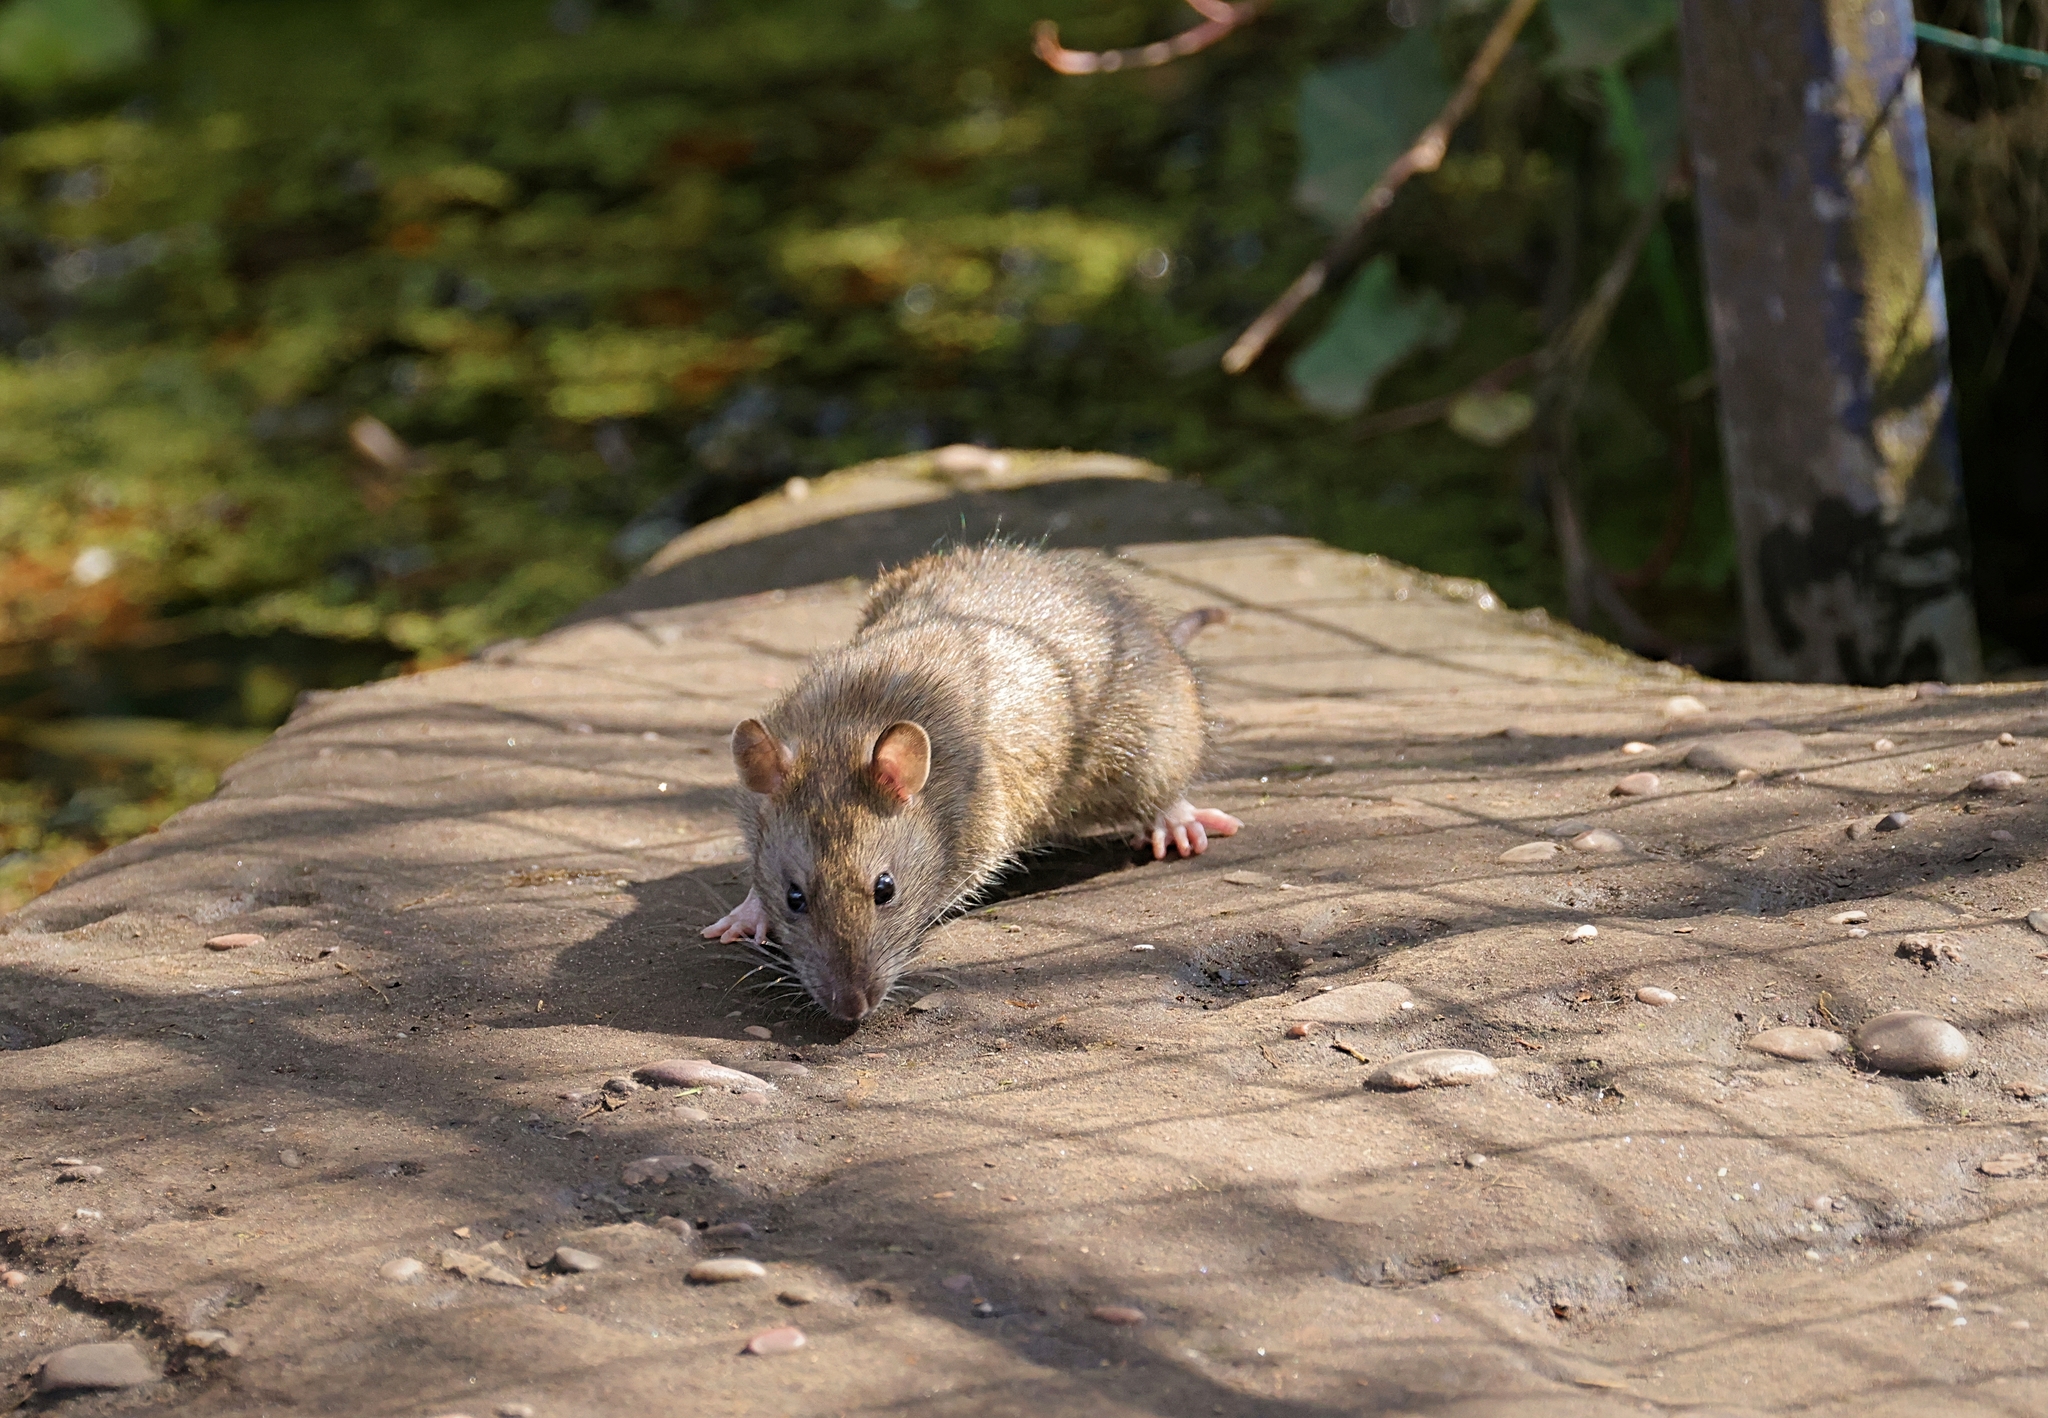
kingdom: Animalia
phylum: Chordata
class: Mammalia
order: Rodentia
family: Muridae
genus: Rattus
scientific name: Rattus norvegicus
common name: Brown rat
